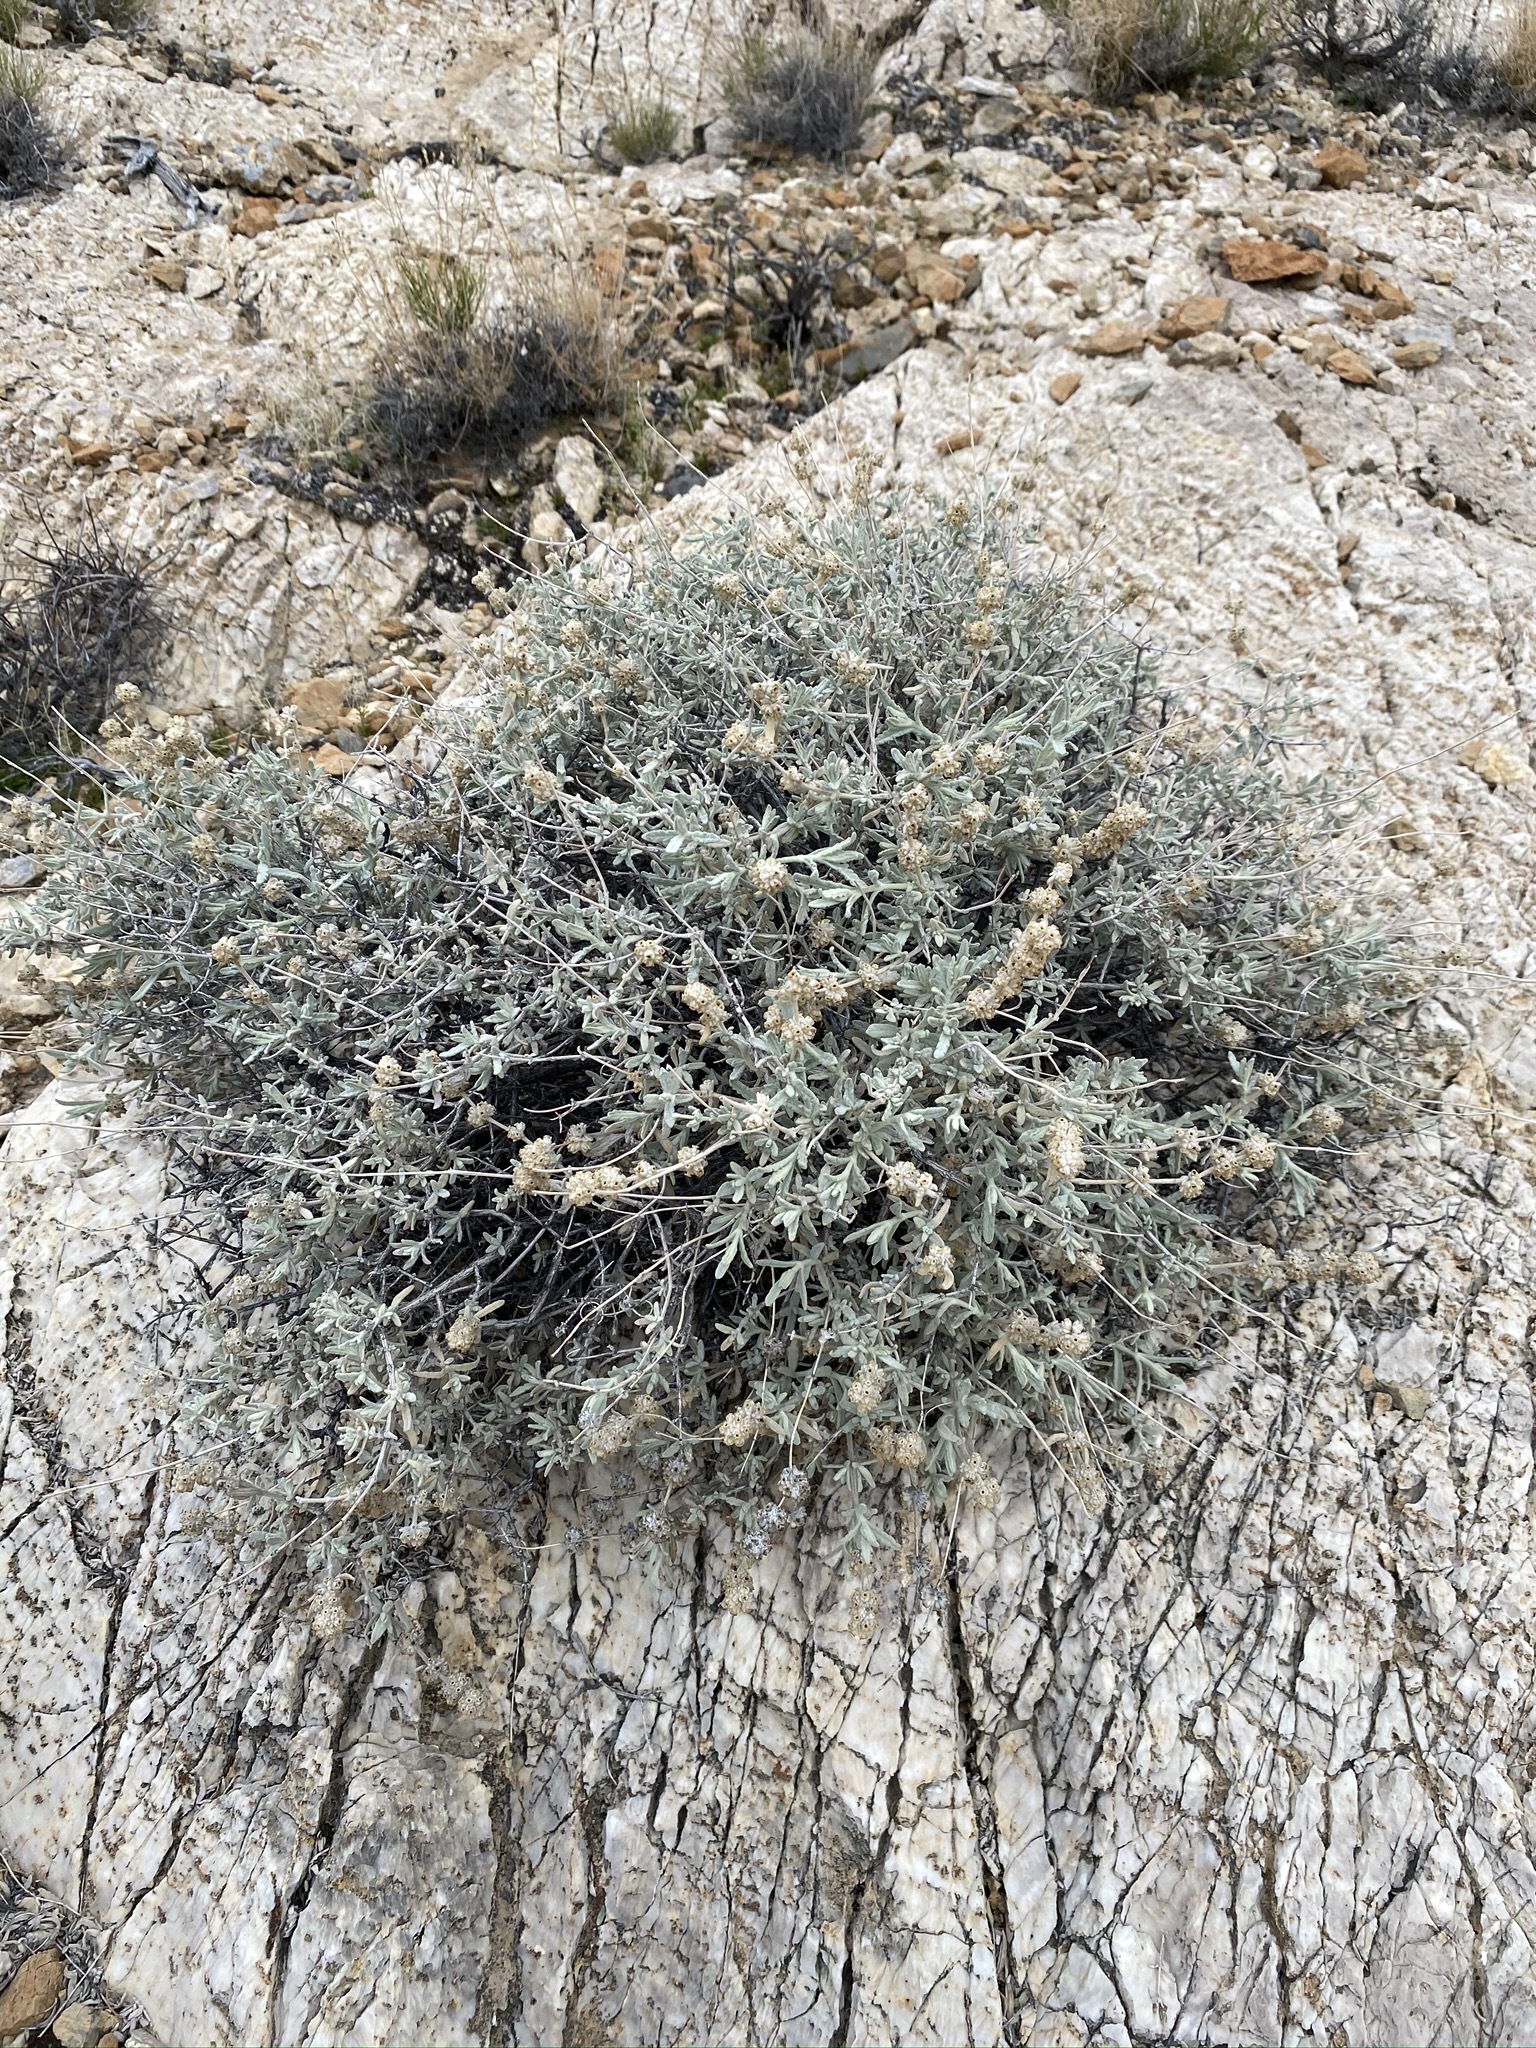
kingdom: Plantae
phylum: Tracheophyta
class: Magnoliopsida
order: Lamiales
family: Scrophulariaceae
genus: Buddleja
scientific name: Buddleja utahensis
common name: Utah butterfly-bush
